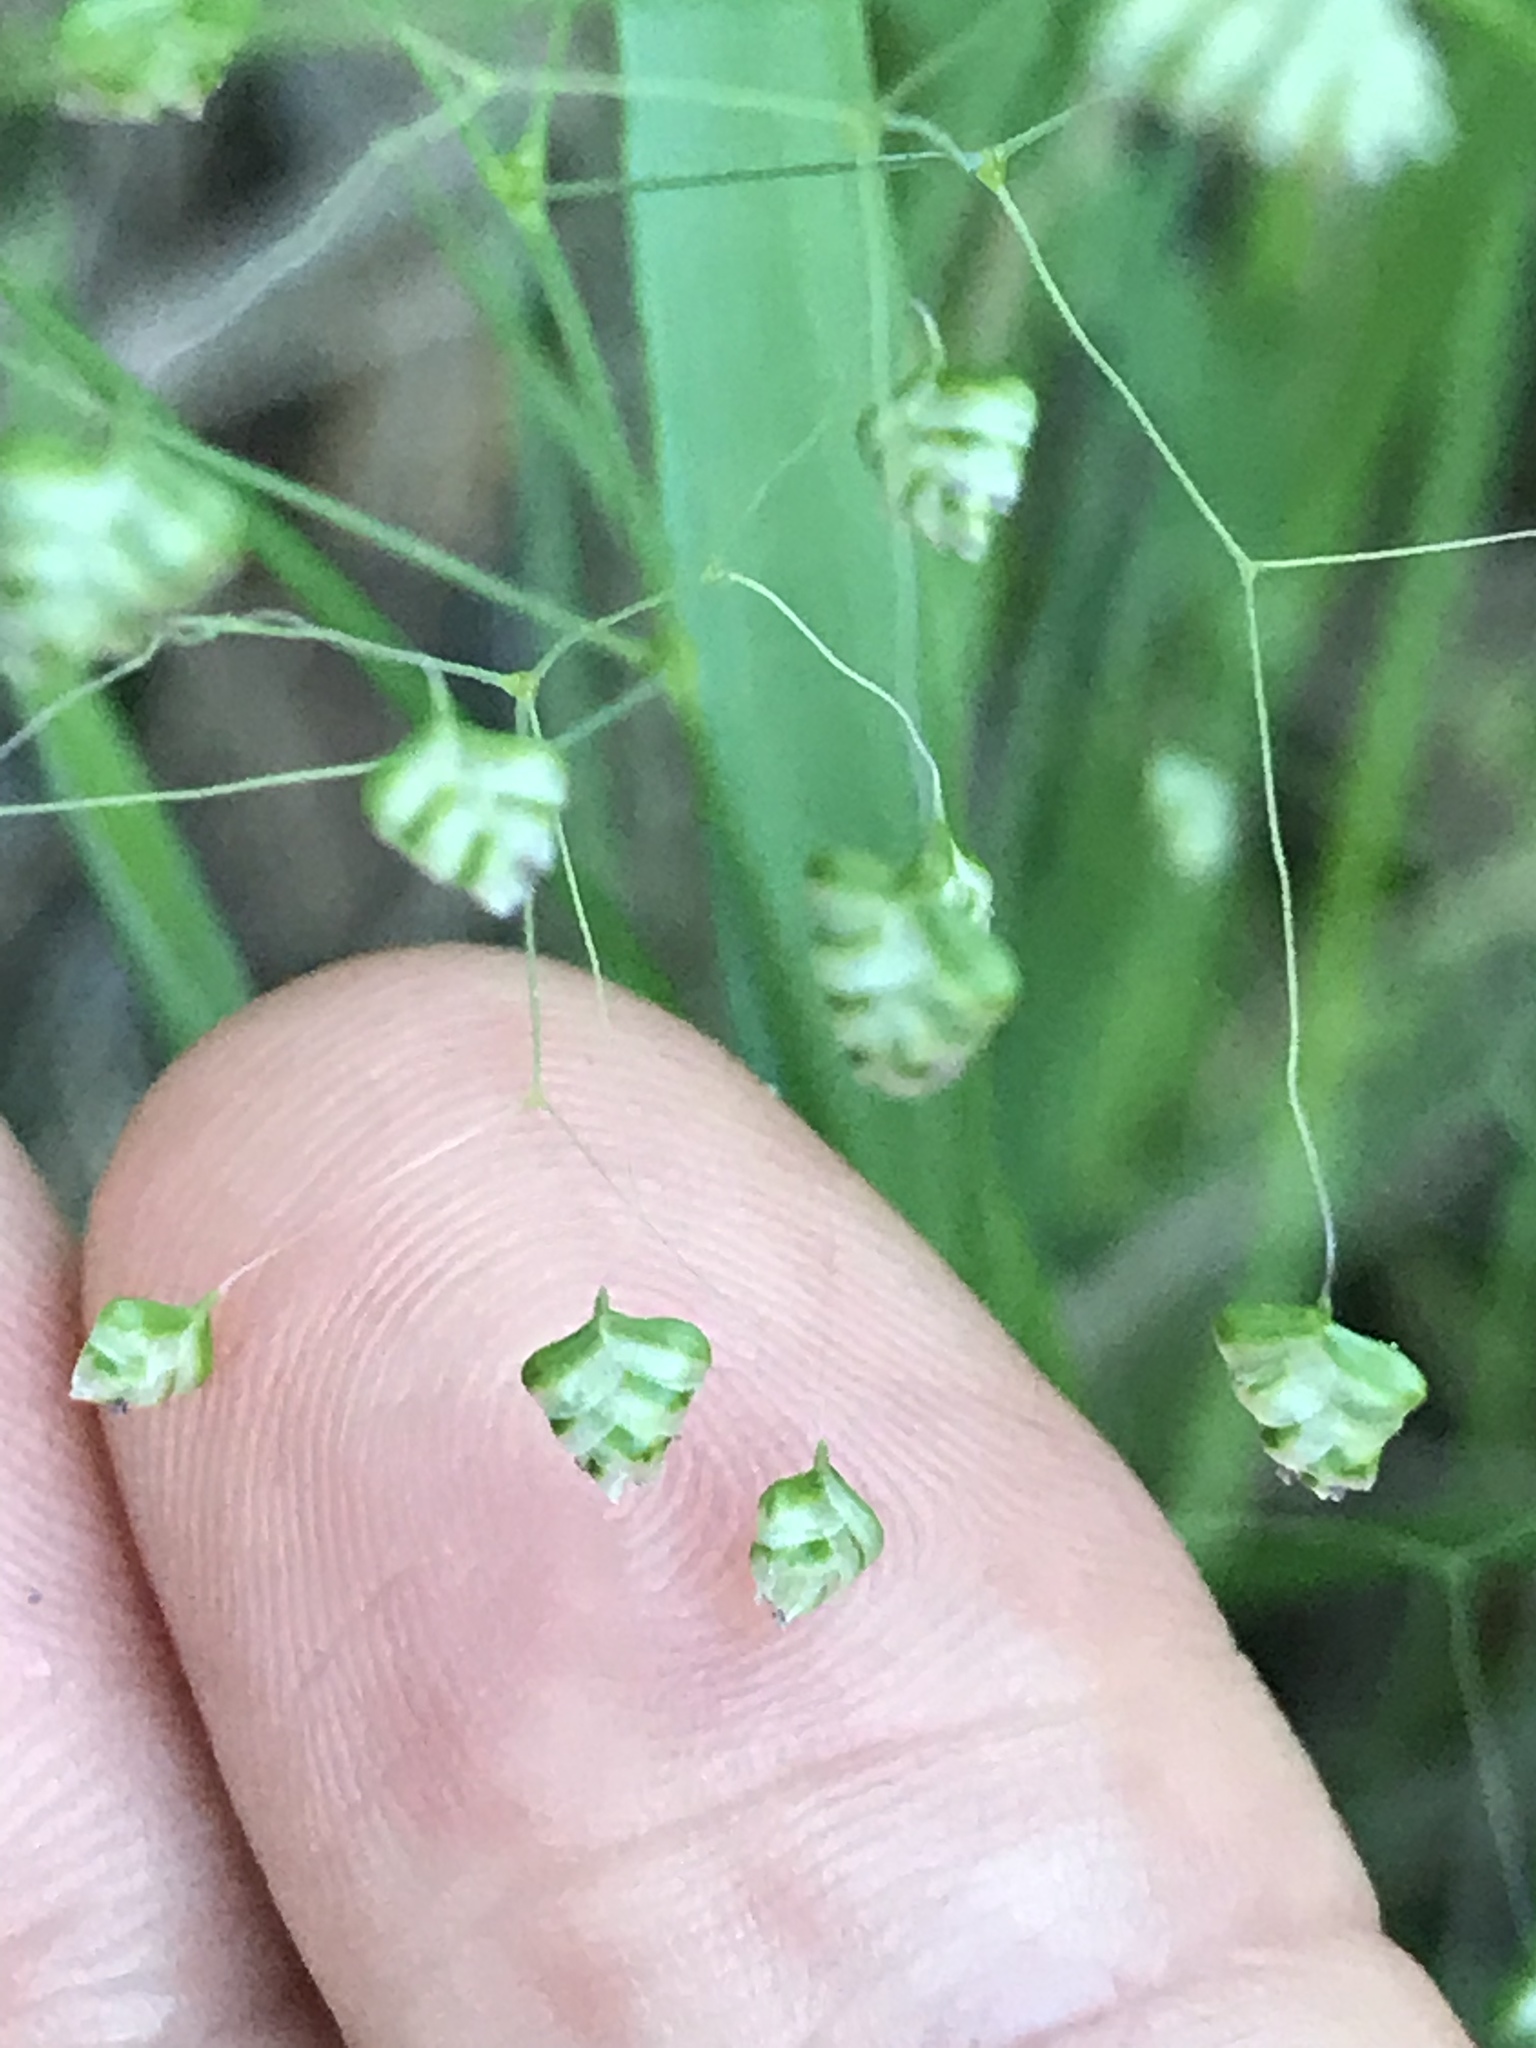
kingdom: Plantae
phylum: Tracheophyta
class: Liliopsida
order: Poales
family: Poaceae
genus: Briza
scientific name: Briza minor
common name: Lesser quaking-grass
